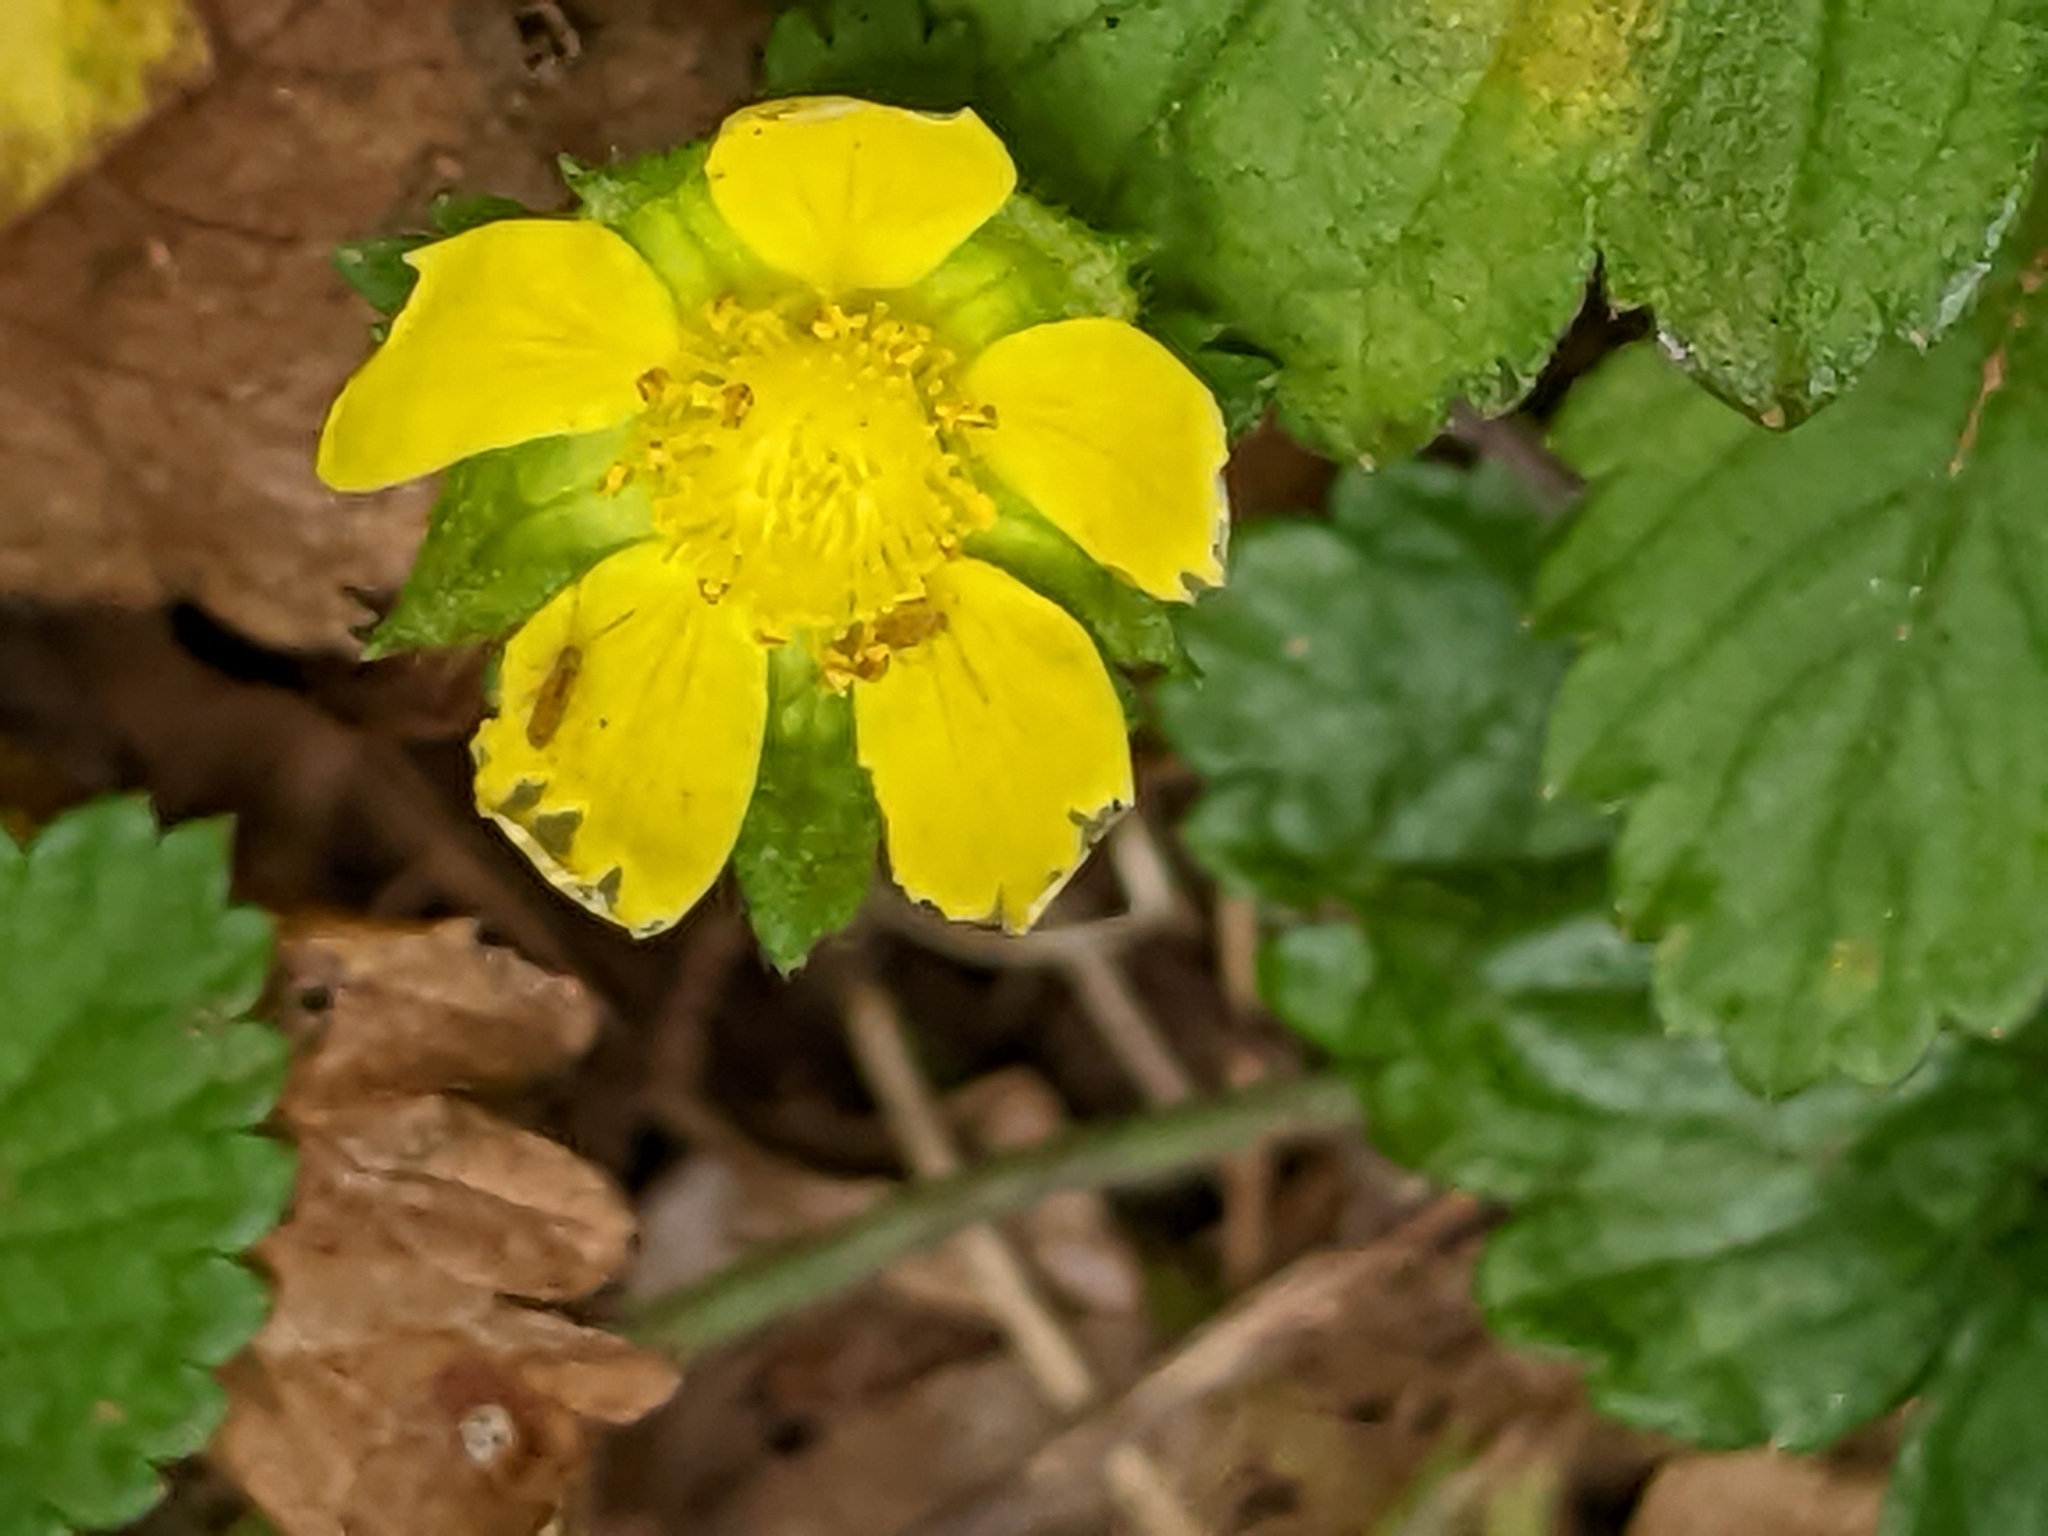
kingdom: Plantae
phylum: Tracheophyta
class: Magnoliopsida
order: Rosales
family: Rosaceae
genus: Potentilla
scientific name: Potentilla indica
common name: Yellow-flowered strawberry
